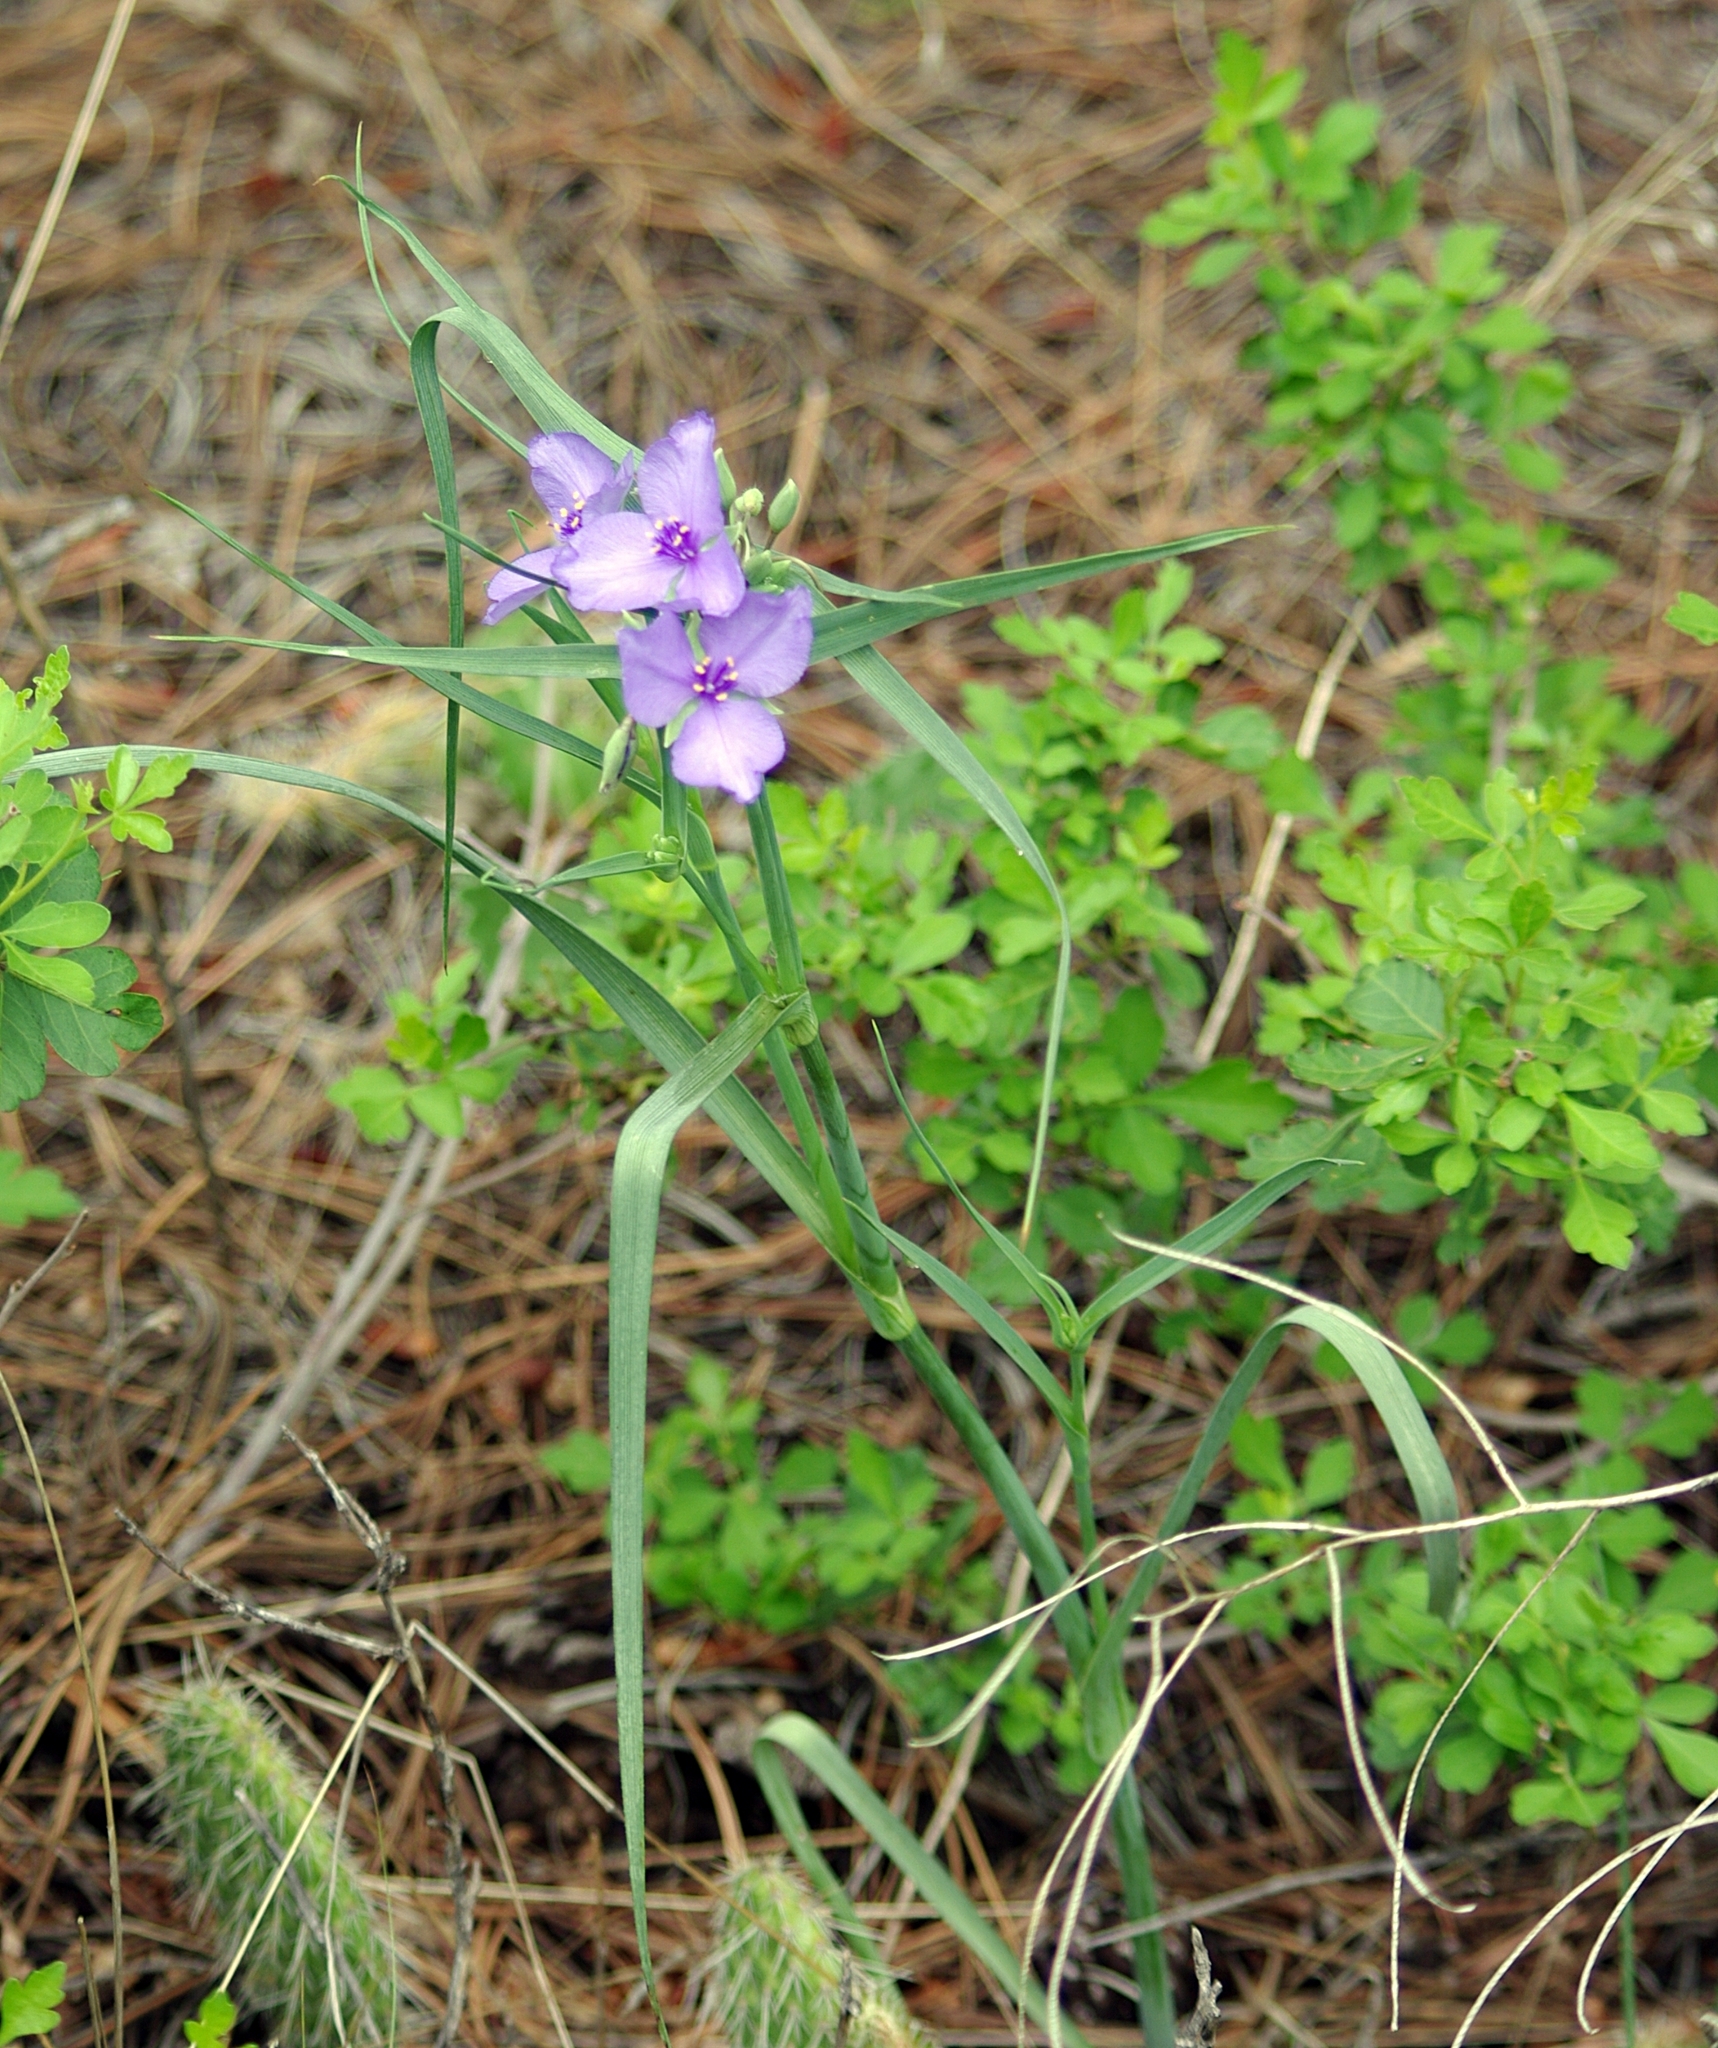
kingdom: Plantae
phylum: Tracheophyta
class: Liliopsida
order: Commelinales
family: Commelinaceae
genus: Tradescantia
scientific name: Tradescantia occidentalis
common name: Prairie spiderwort
